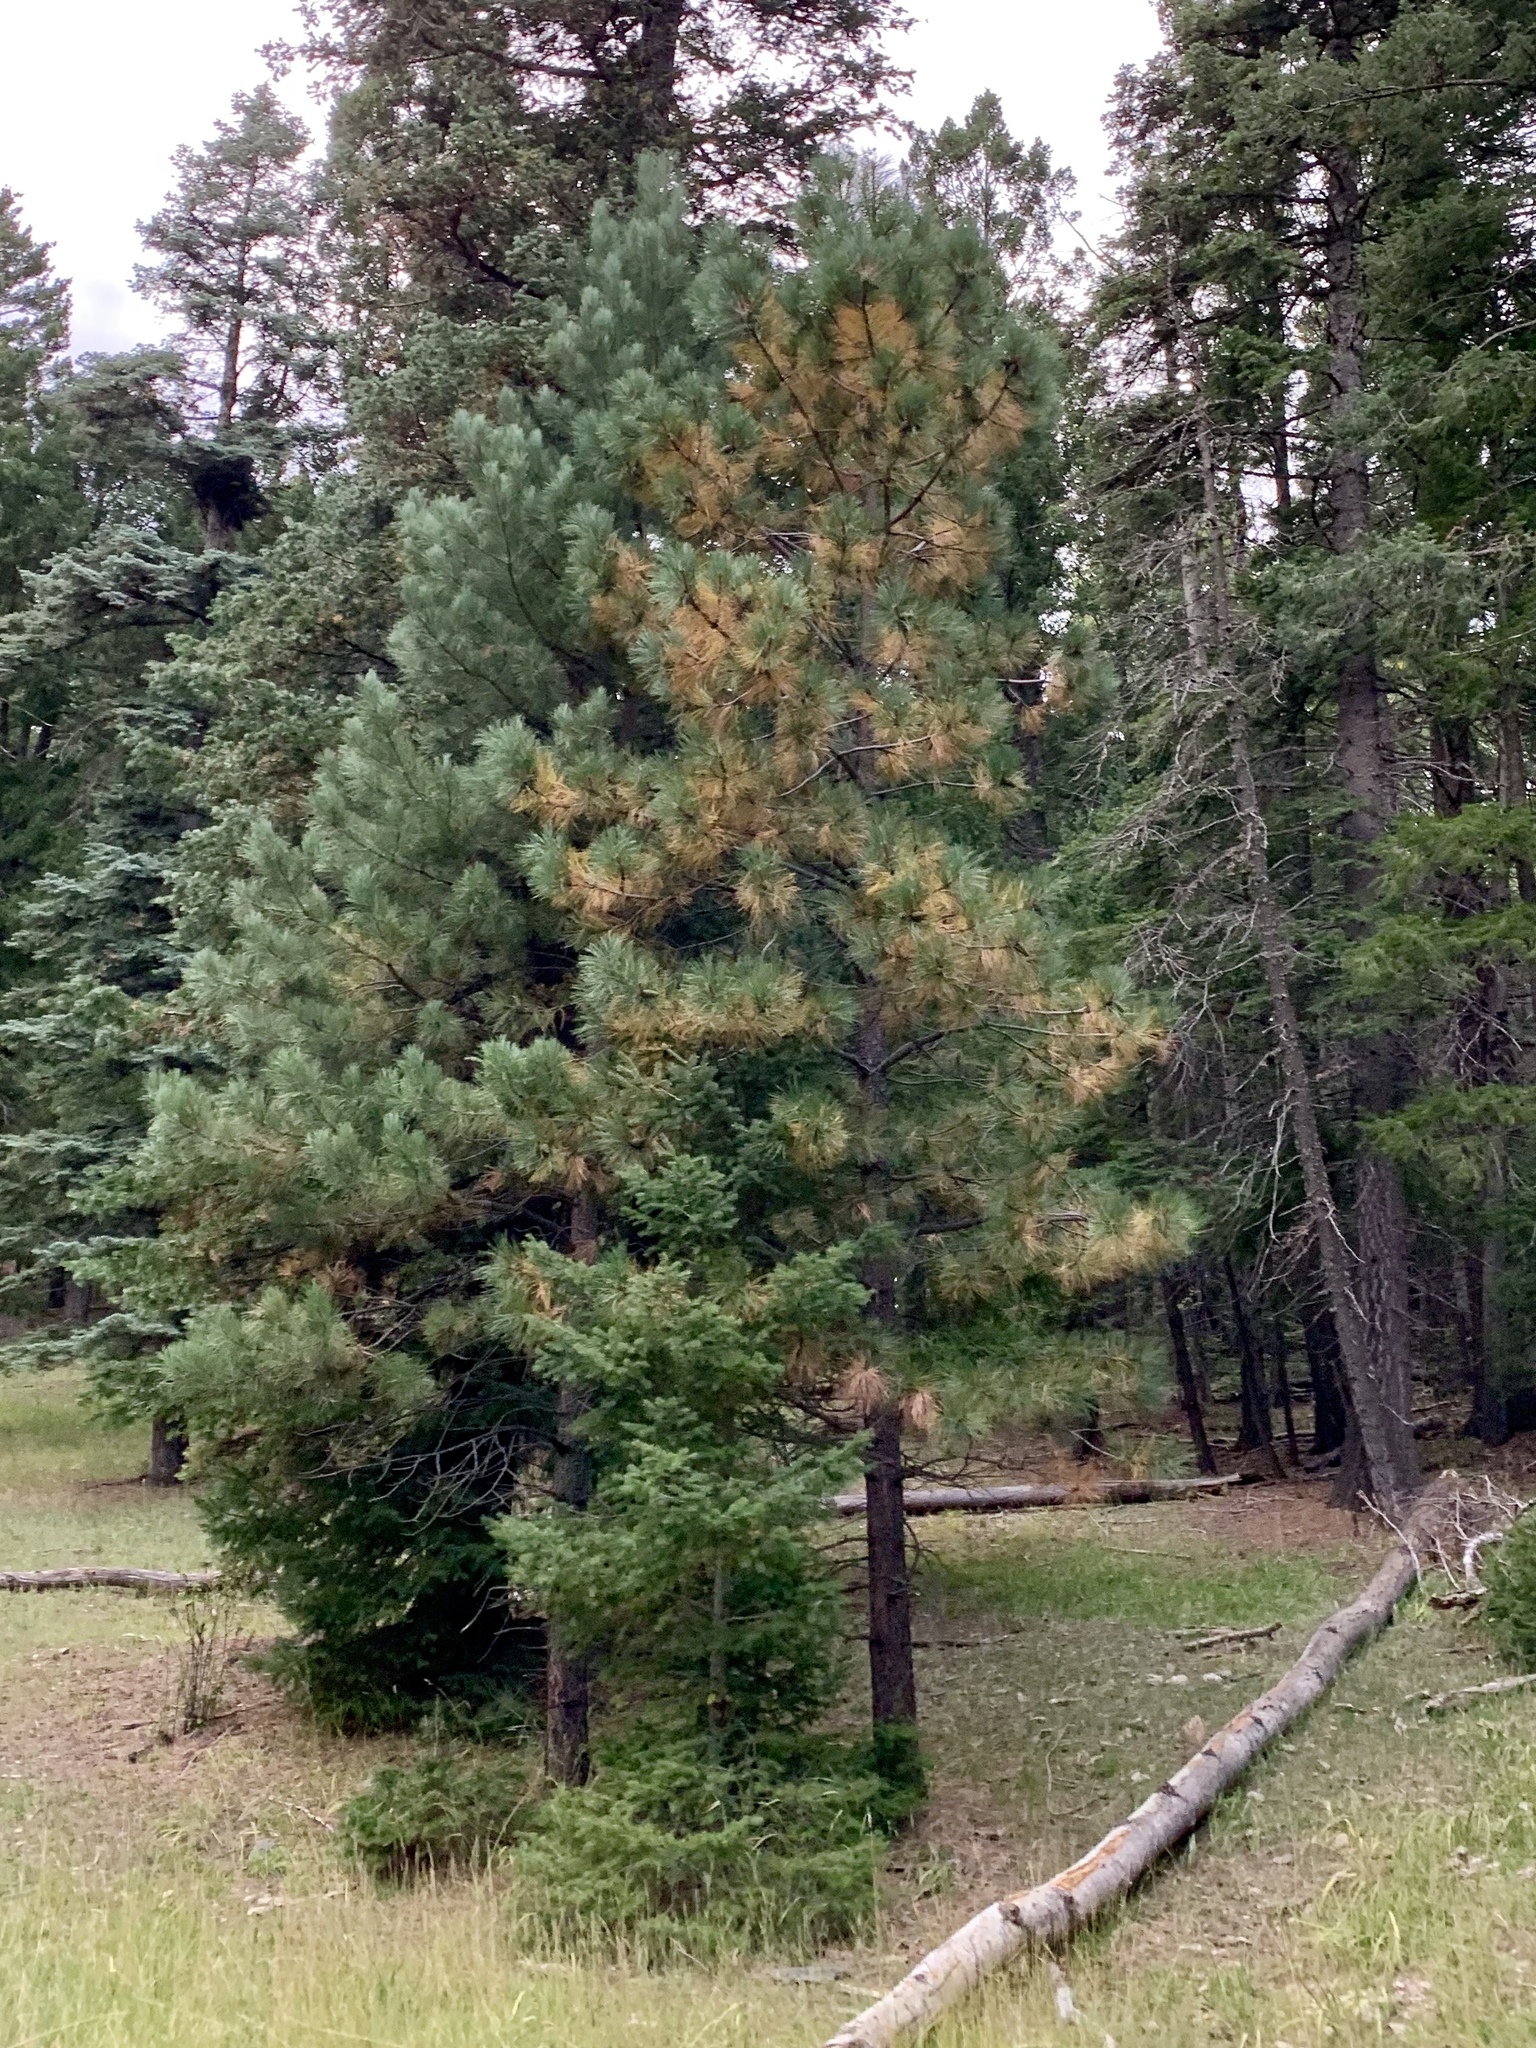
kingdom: Plantae
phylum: Tracheophyta
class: Pinopsida
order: Pinales
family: Pinaceae
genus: Pinus
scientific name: Pinus ponderosa
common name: Western yellow-pine
